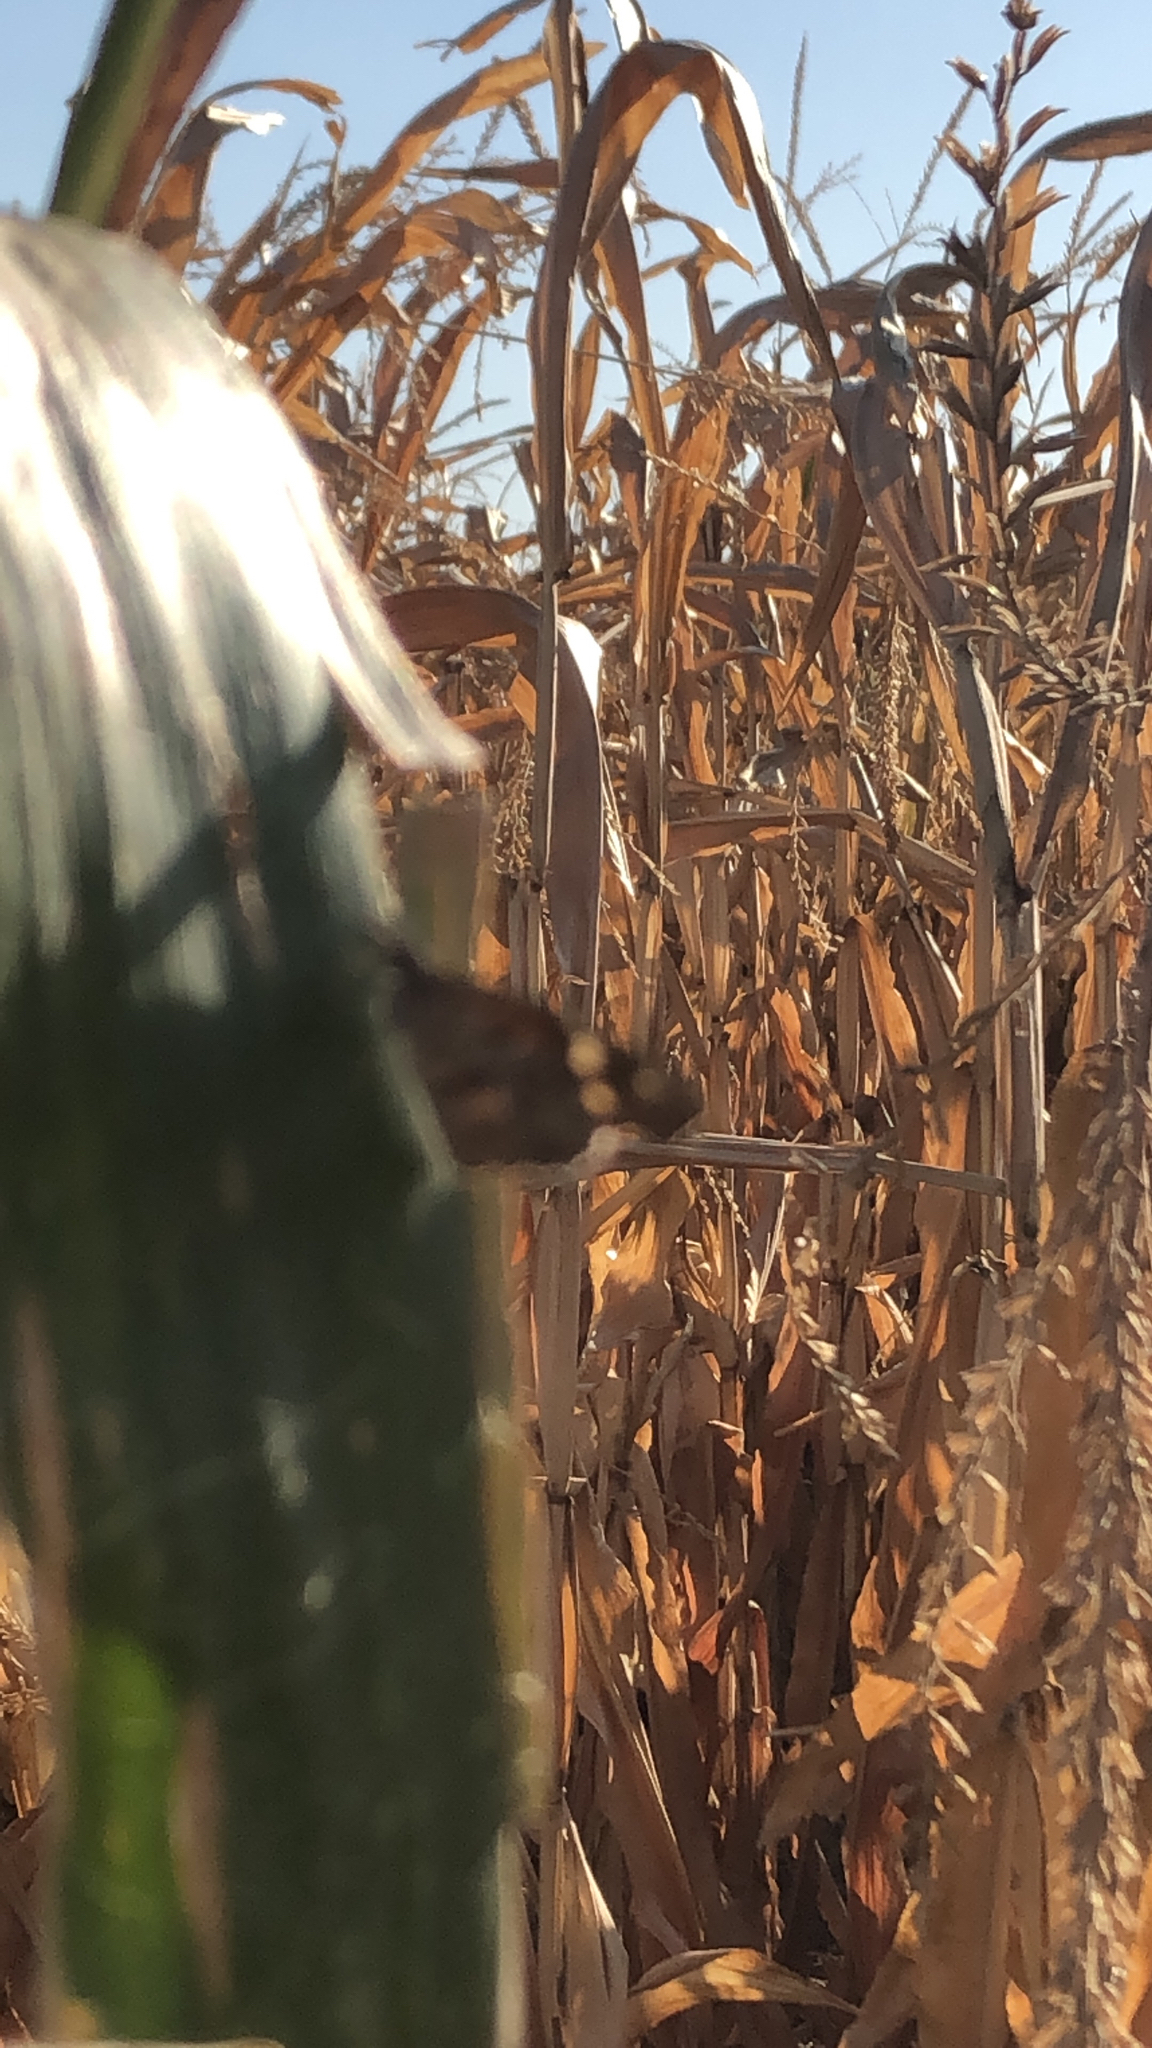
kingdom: Animalia
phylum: Arthropoda
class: Insecta
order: Lepidoptera
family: Nymphalidae
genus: Libytheana
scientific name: Libytheana carinenta
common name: American snout
